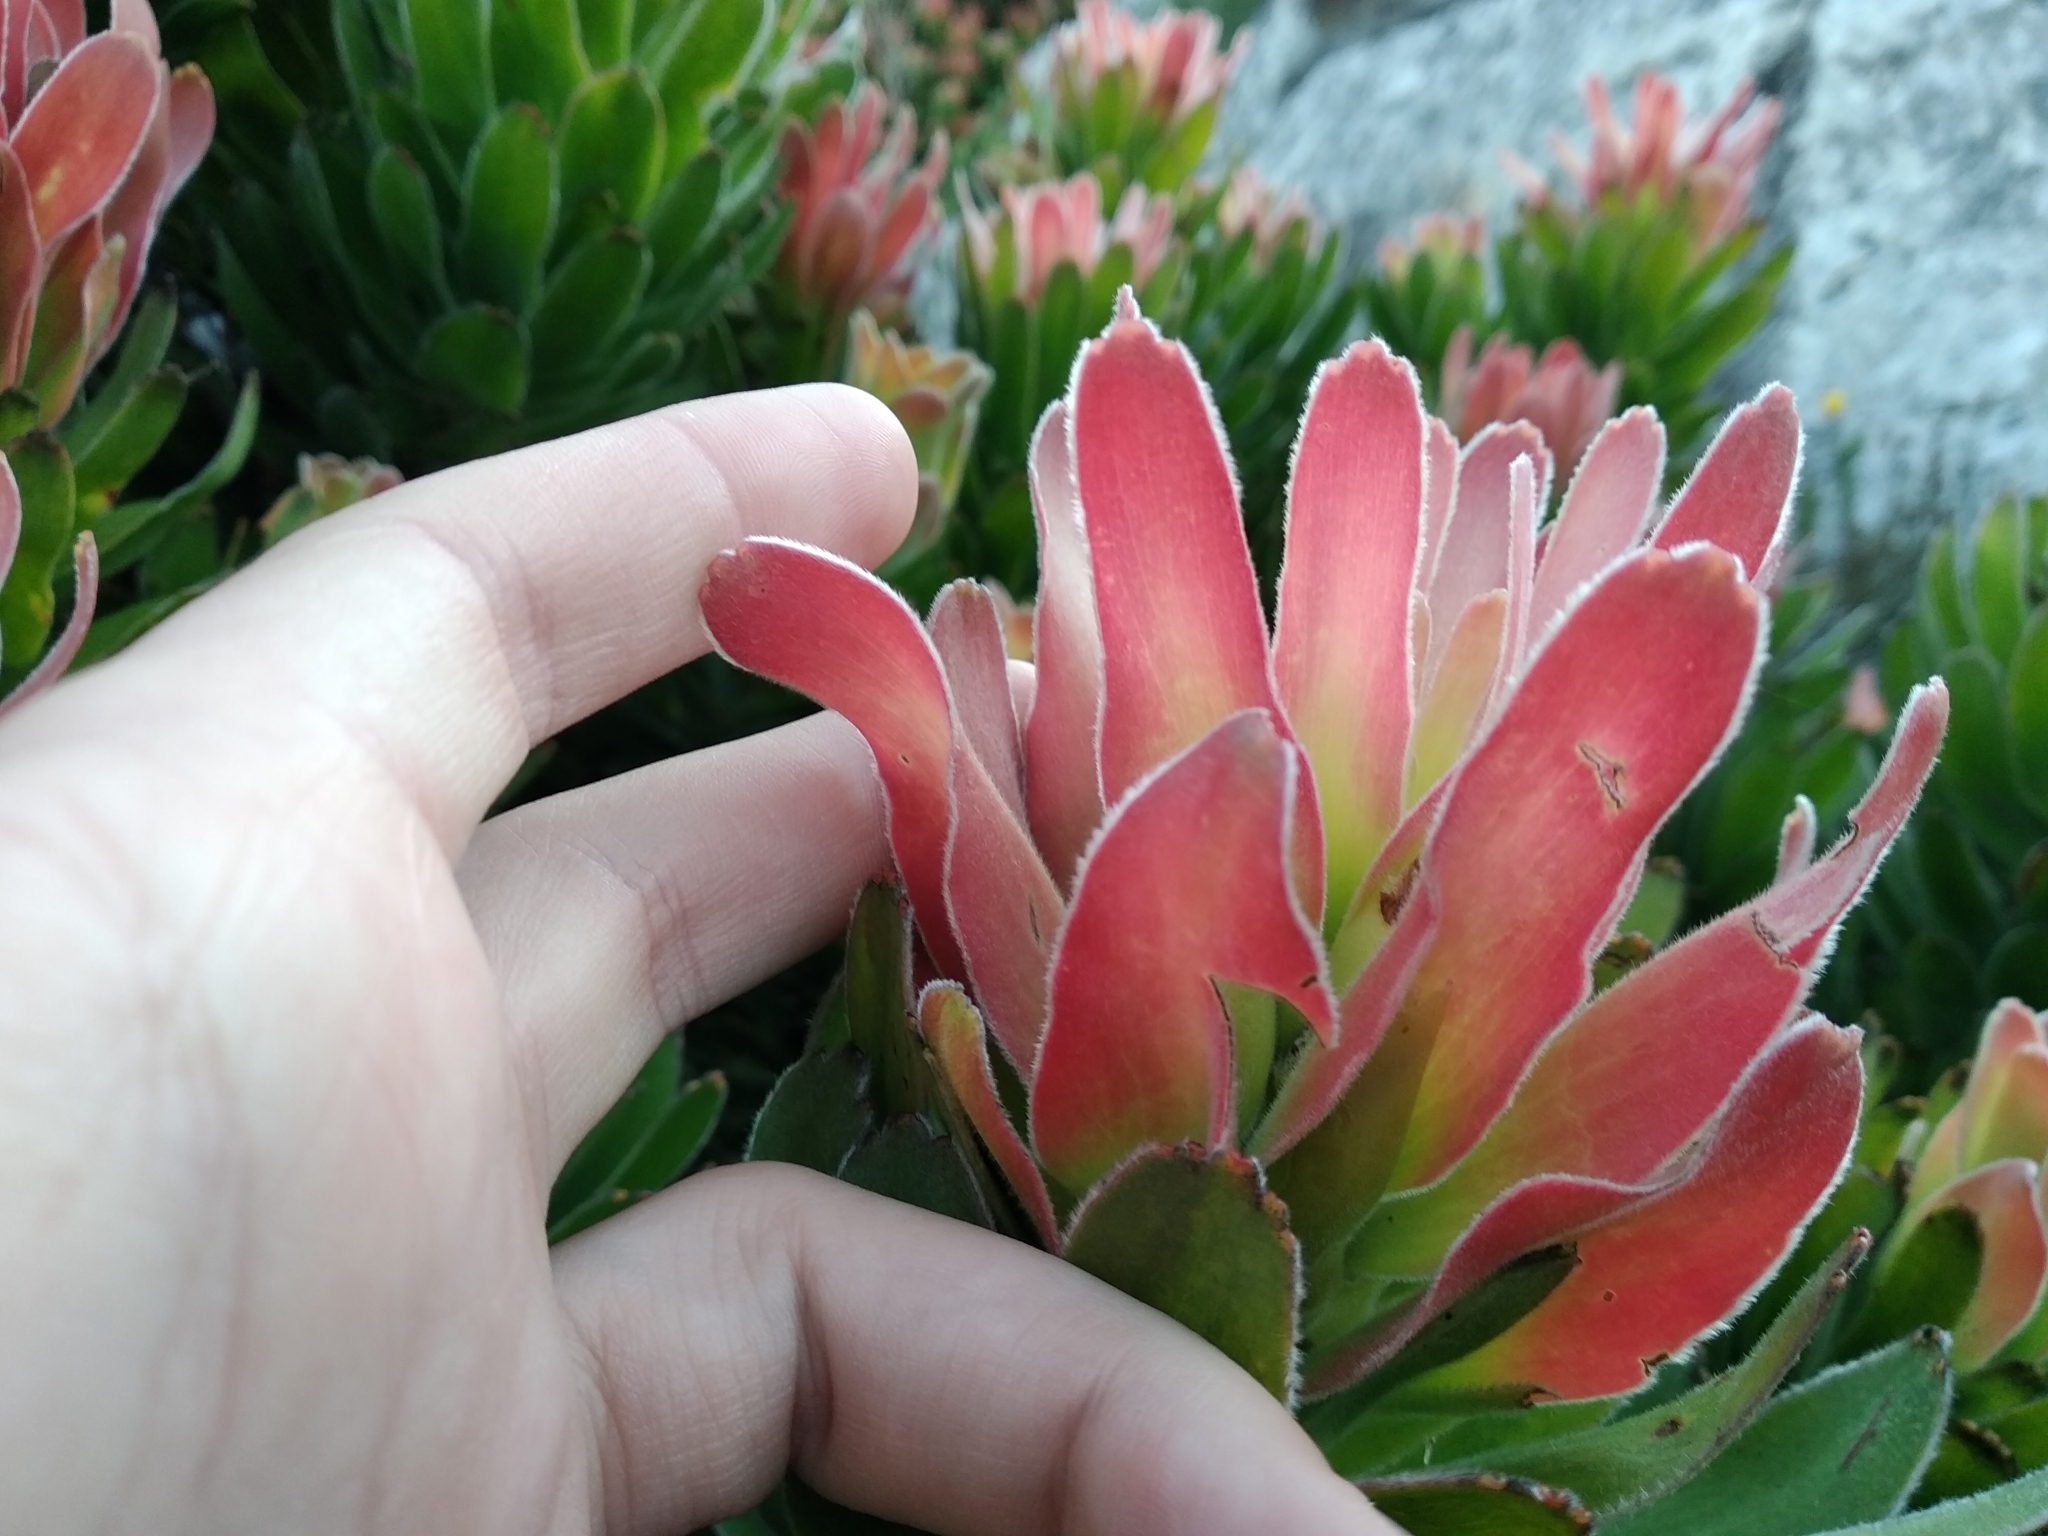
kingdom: Plantae
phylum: Tracheophyta
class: Magnoliopsida
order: Proteales
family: Proteaceae
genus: Mimetes
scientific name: Mimetes fimbriifolius
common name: Fringed bottlebrush
